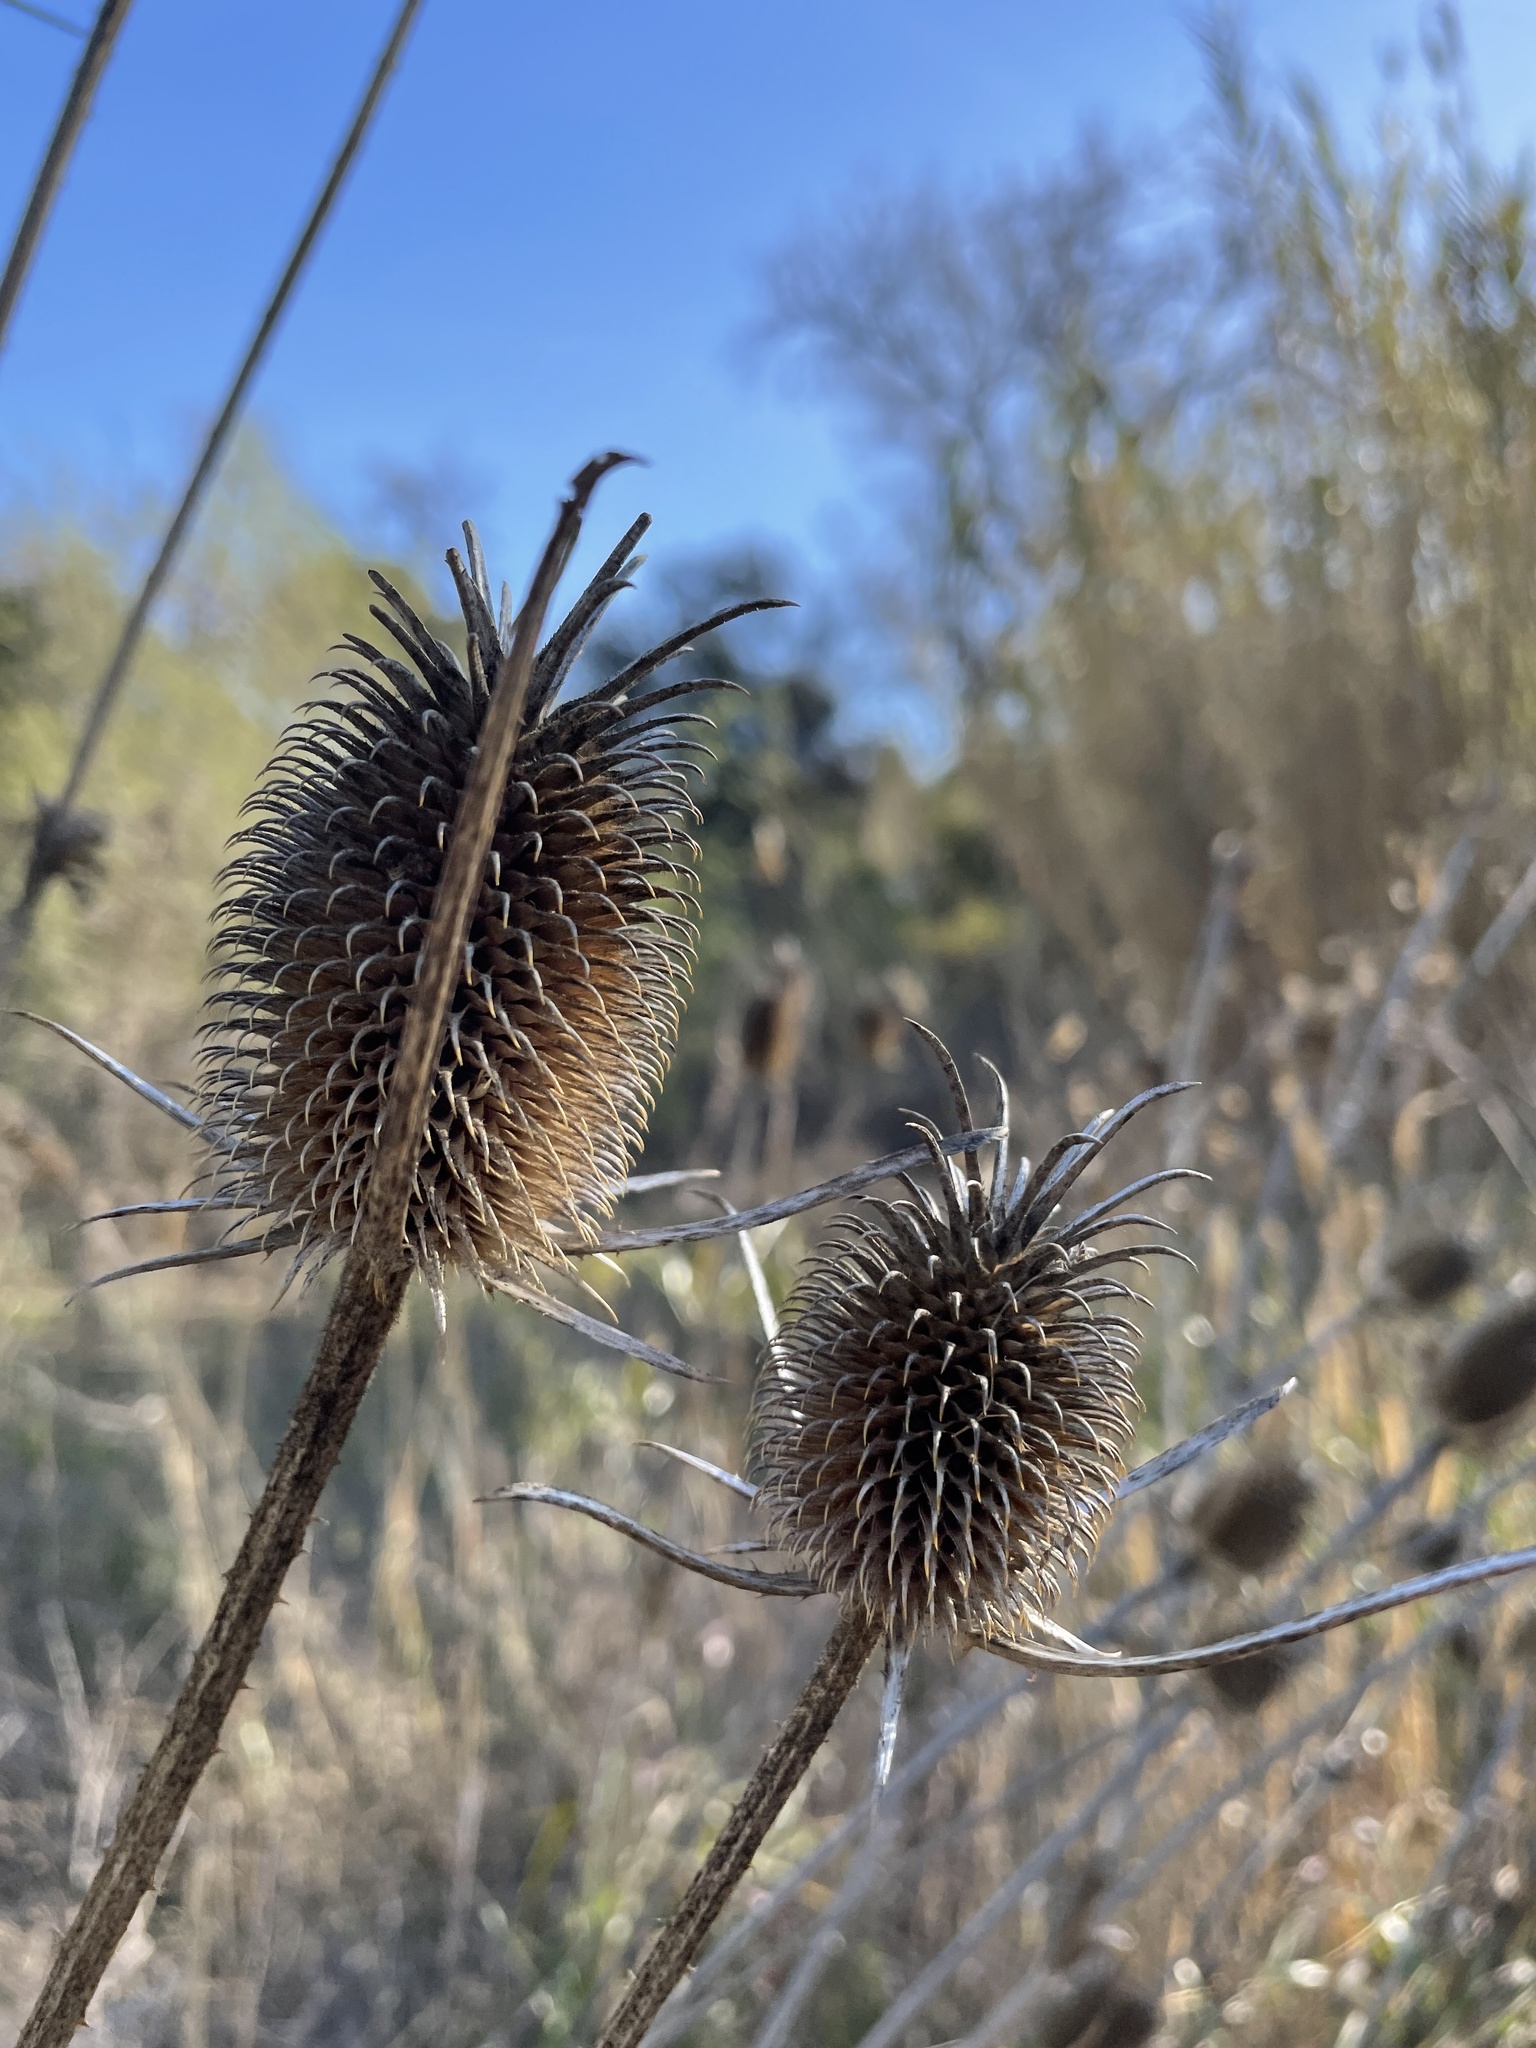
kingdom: Plantae
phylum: Tracheophyta
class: Magnoliopsida
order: Dipsacales
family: Caprifoliaceae
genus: Dipsacus
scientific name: Dipsacus sativus
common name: Fuller's teasel
